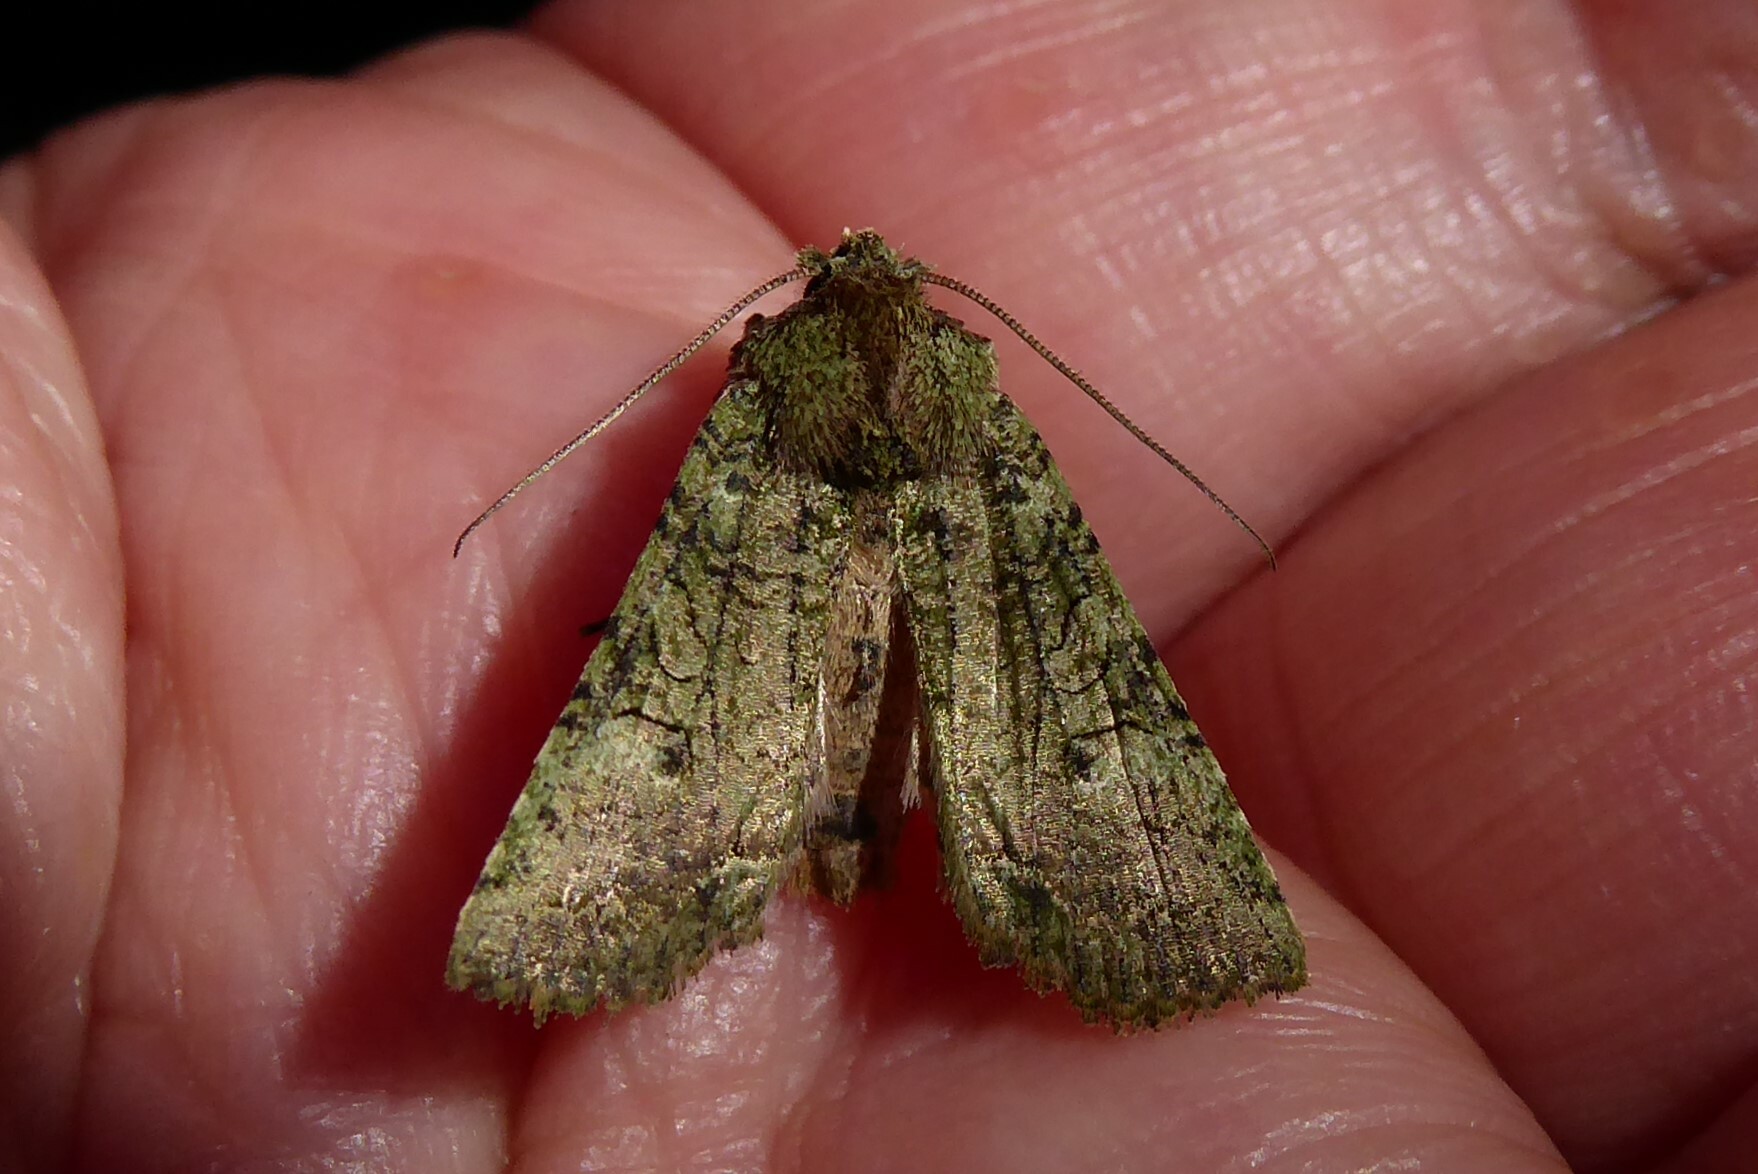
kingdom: Animalia
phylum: Arthropoda
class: Insecta
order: Lepidoptera
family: Noctuidae
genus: Meterana
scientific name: Meterana levis
